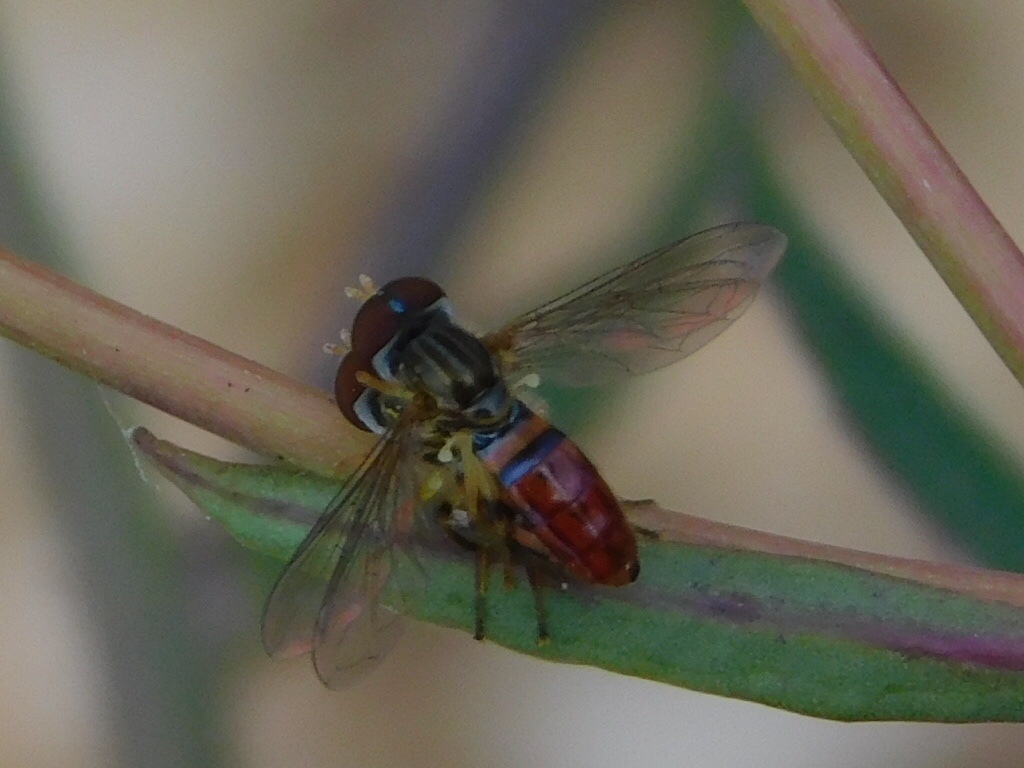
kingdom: Animalia
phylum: Arthropoda
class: Insecta
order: Diptera
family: Syrphidae
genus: Toxomerus
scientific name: Toxomerus boscii
